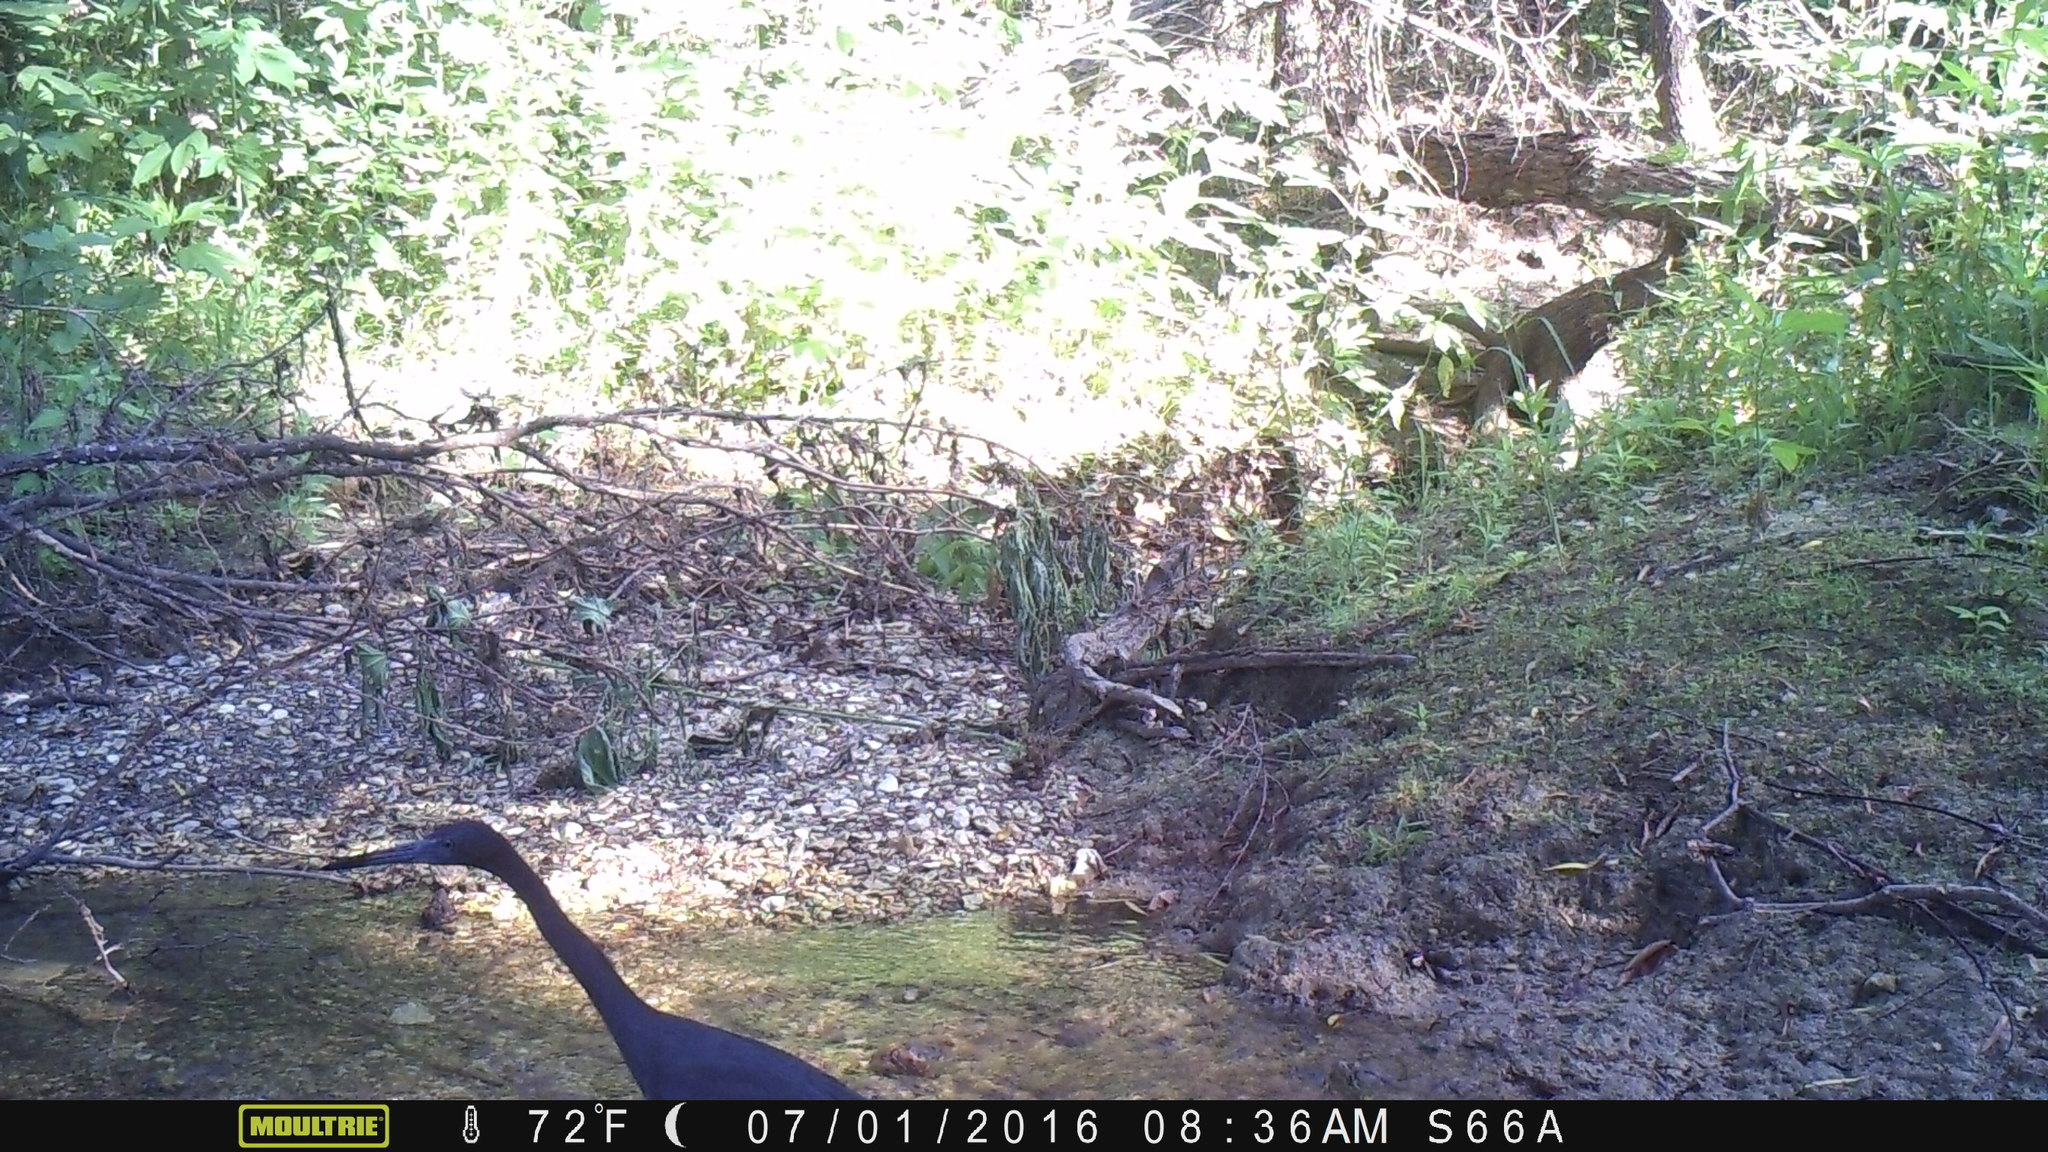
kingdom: Animalia
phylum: Chordata
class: Aves
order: Pelecaniformes
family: Ardeidae
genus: Egretta
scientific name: Egretta caerulea
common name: Little blue heron
